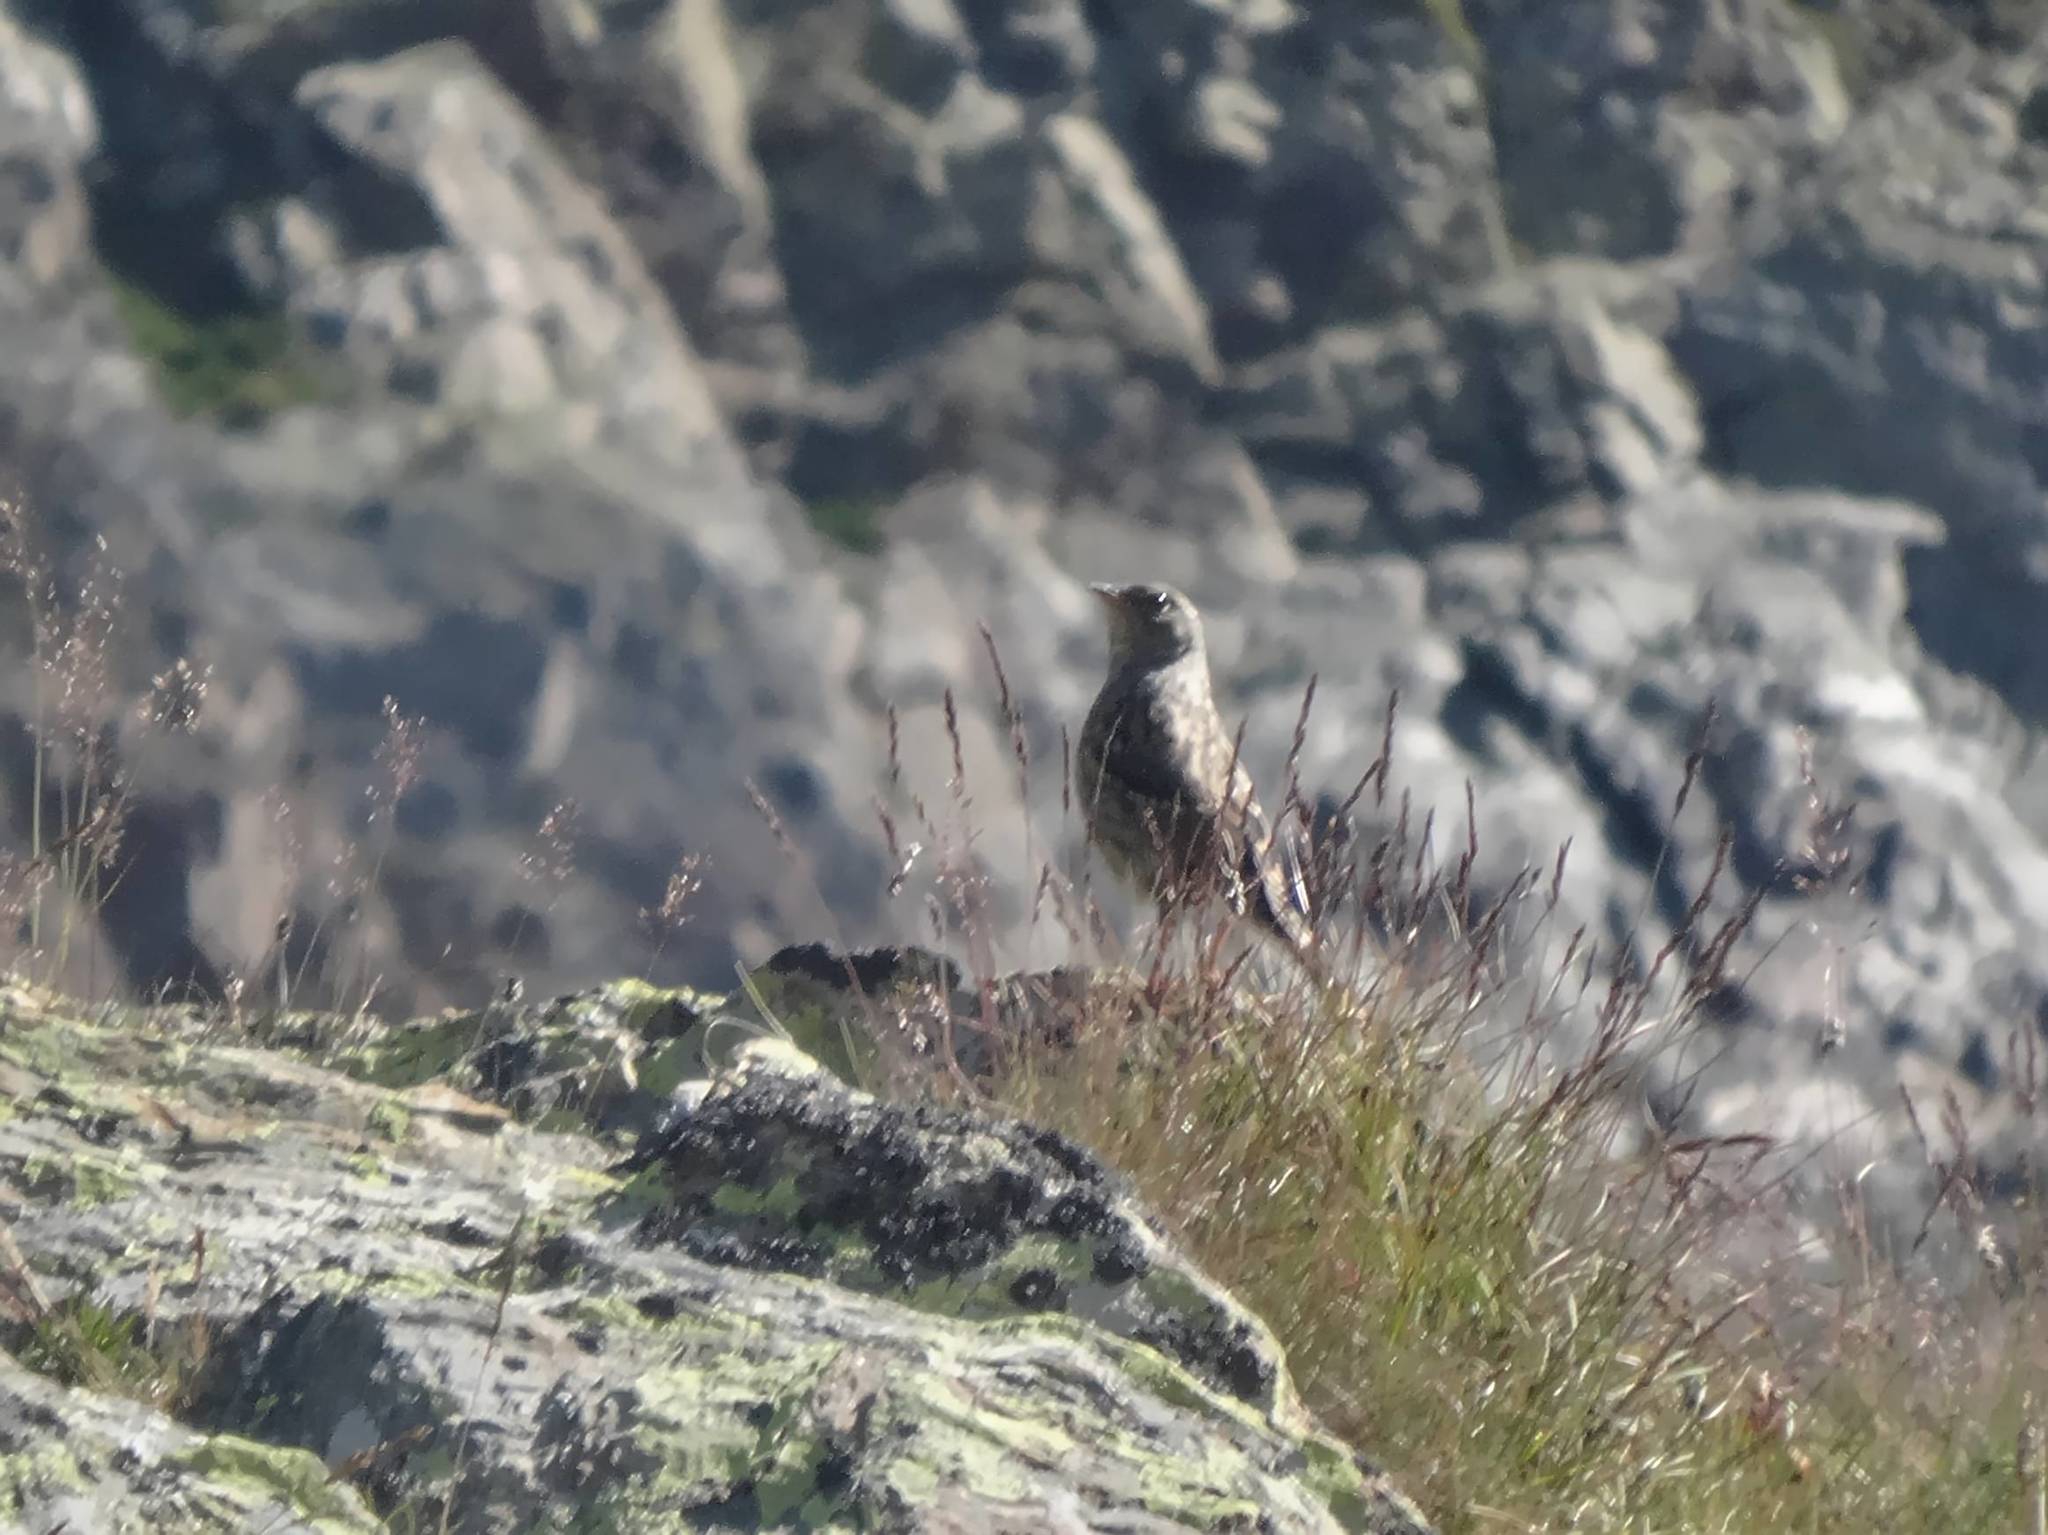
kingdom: Animalia
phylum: Chordata
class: Aves
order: Passeriformes
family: Prunellidae
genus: Prunella
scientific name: Prunella collaris
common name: Alpine accentor
